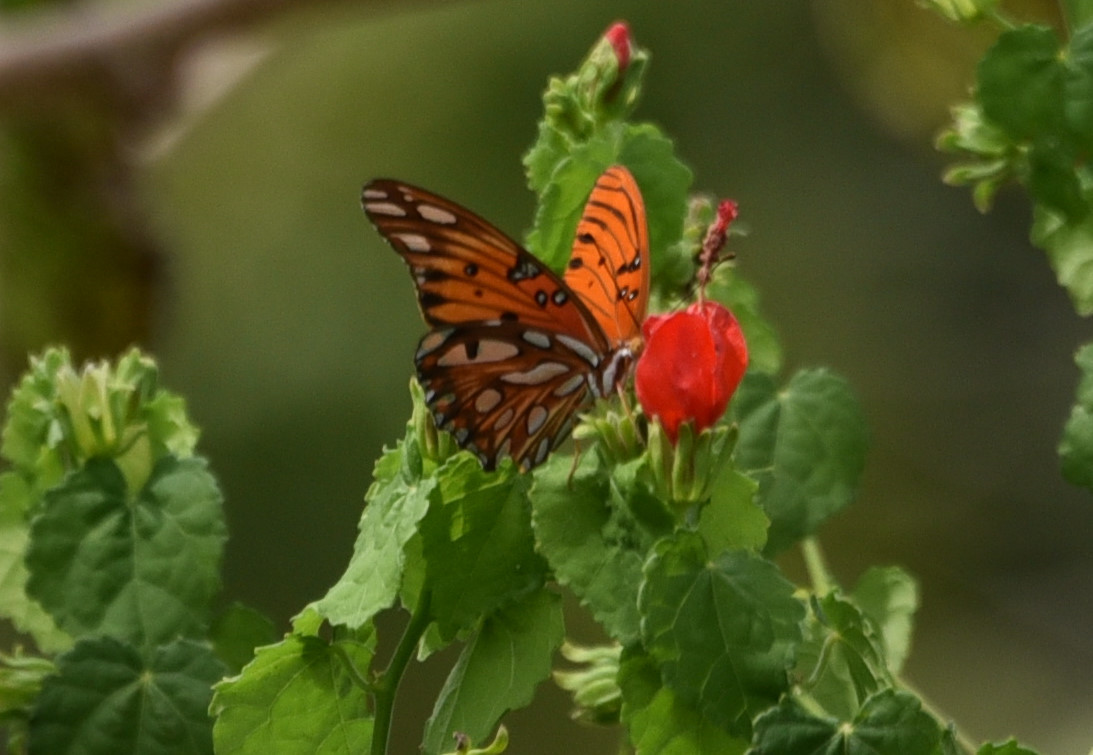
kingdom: Animalia
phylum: Arthropoda
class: Insecta
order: Lepidoptera
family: Nymphalidae
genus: Dione
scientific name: Dione vanillae
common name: Gulf fritillary
